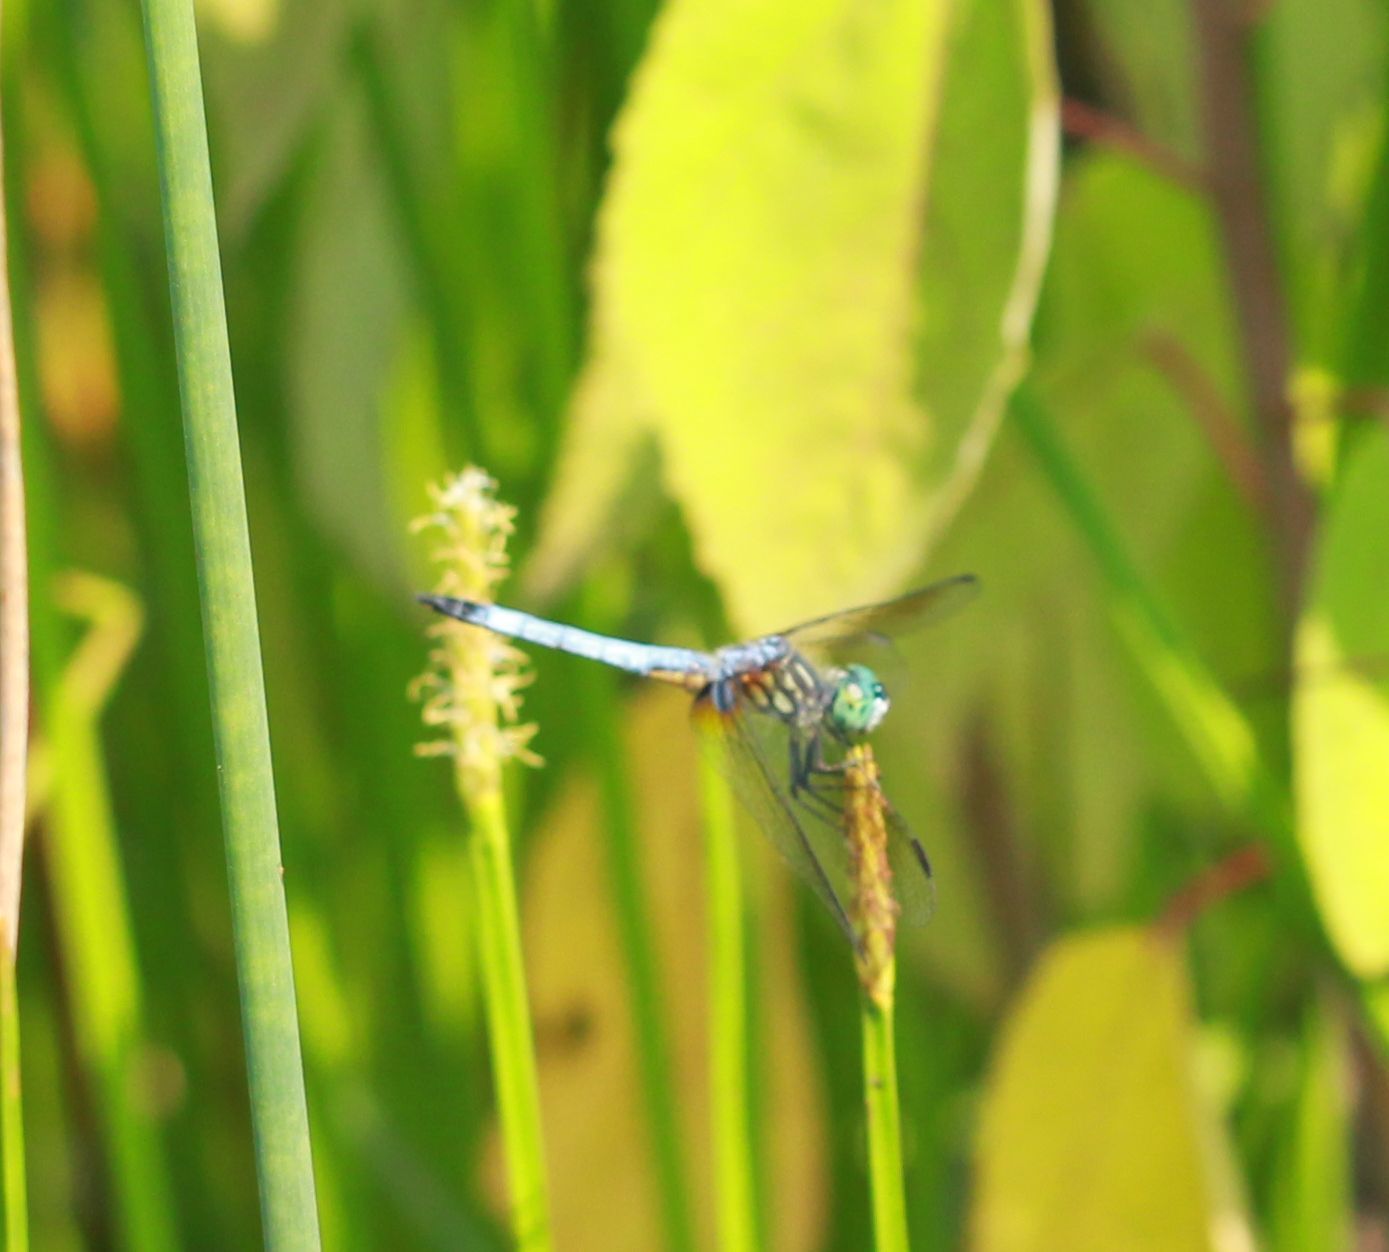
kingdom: Animalia
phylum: Arthropoda
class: Insecta
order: Odonata
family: Libellulidae
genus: Pachydiplax
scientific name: Pachydiplax longipennis
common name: Blue dasher
